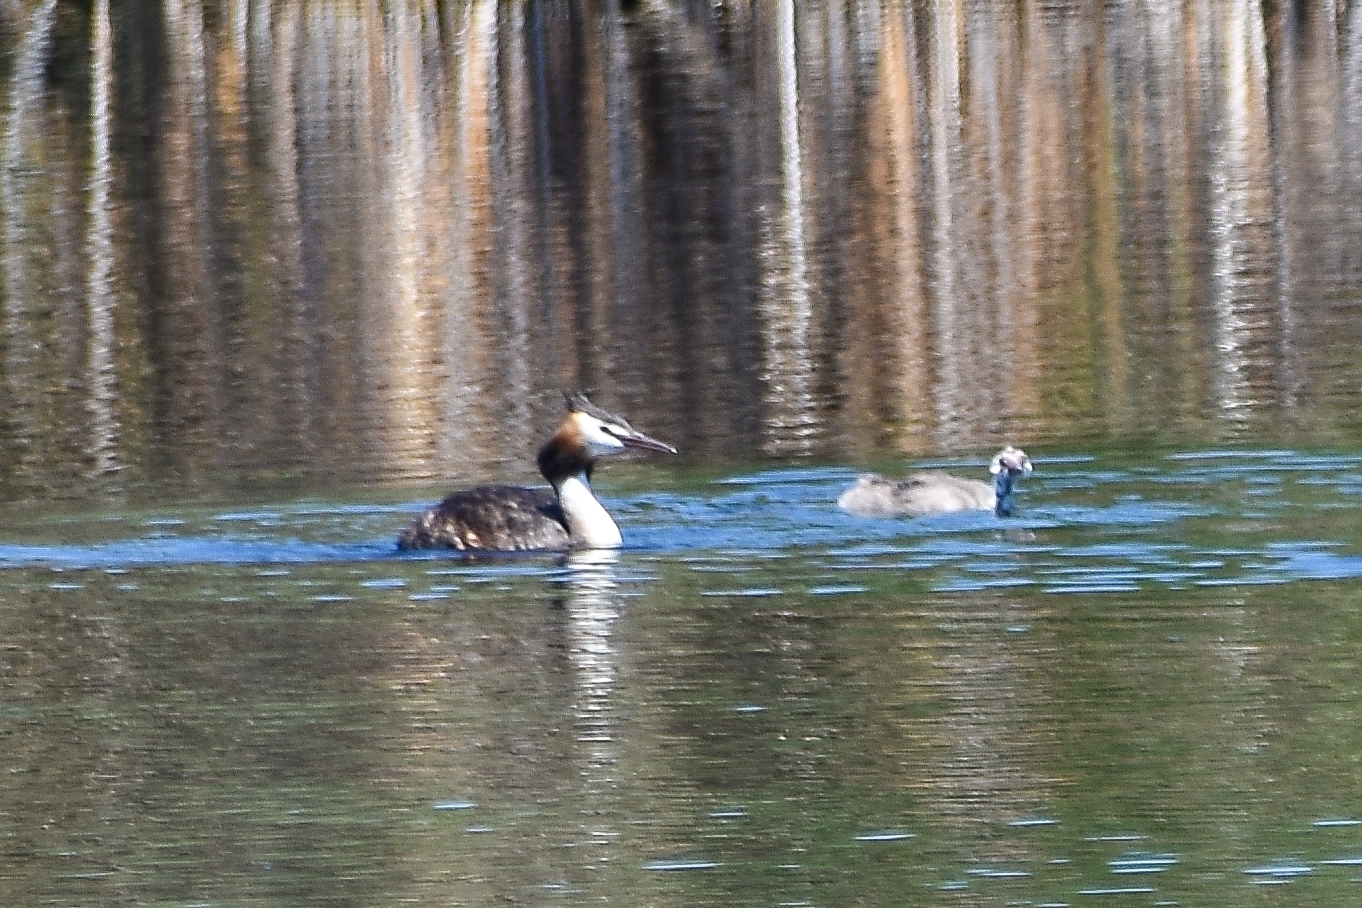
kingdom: Animalia
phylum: Chordata
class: Aves
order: Podicipediformes
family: Podicipedidae
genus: Podiceps
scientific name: Podiceps cristatus
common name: Great crested grebe
